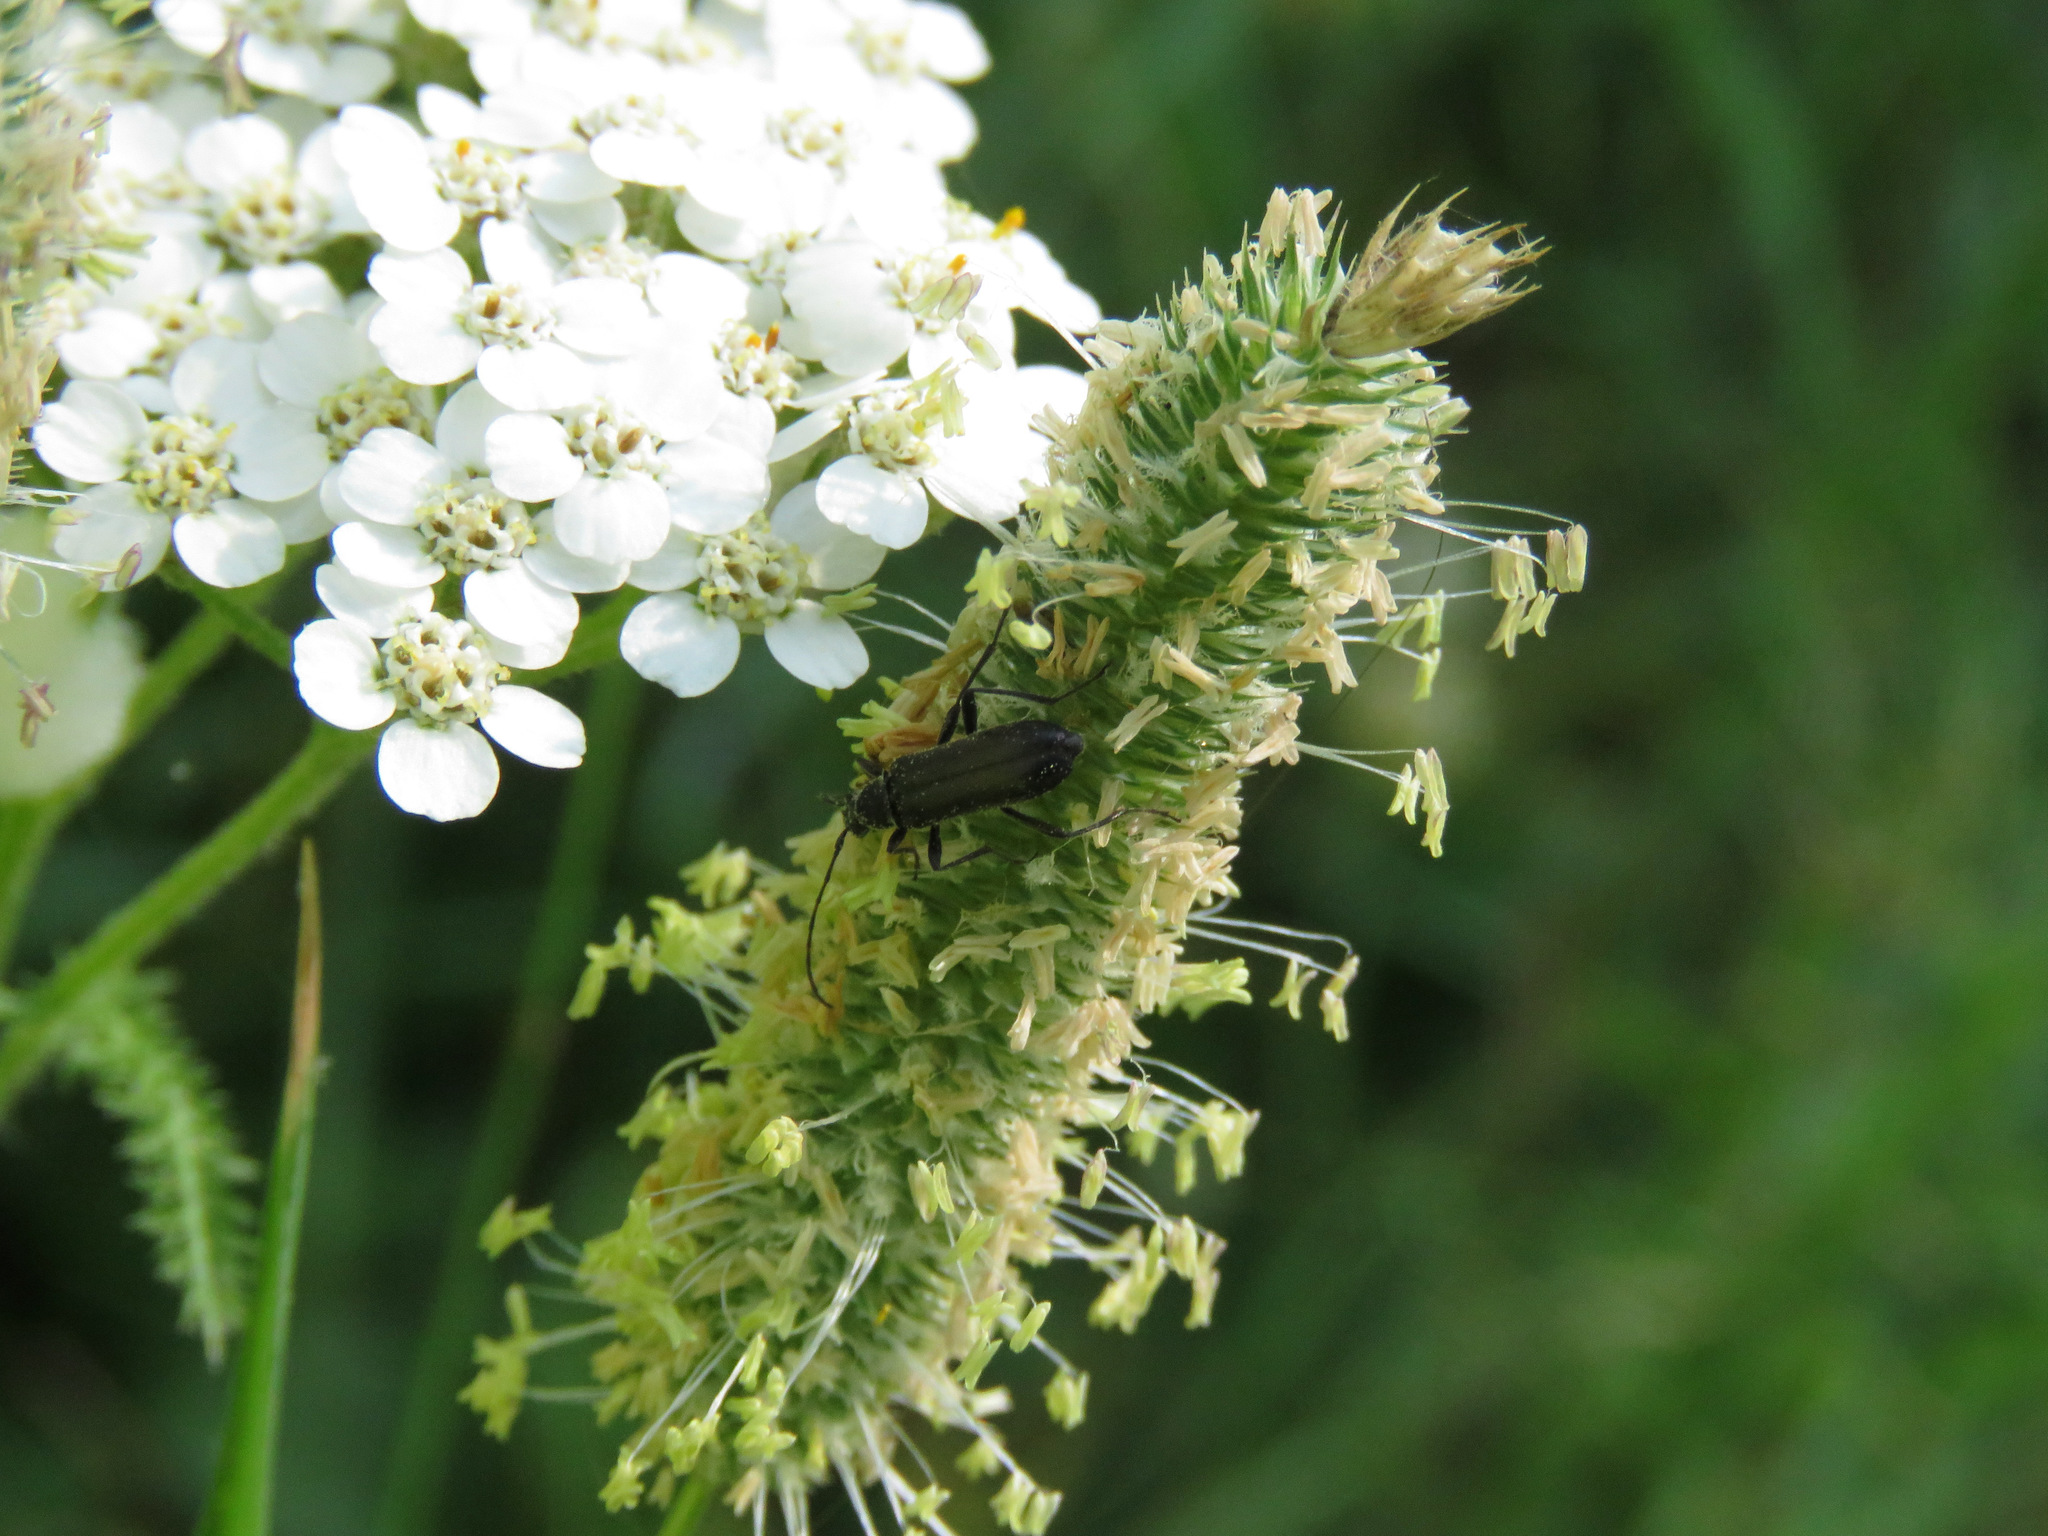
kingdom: Animalia
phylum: Arthropoda
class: Insecta
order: Coleoptera
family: Cerambycidae
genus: Grammoptera
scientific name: Grammoptera subargentata
